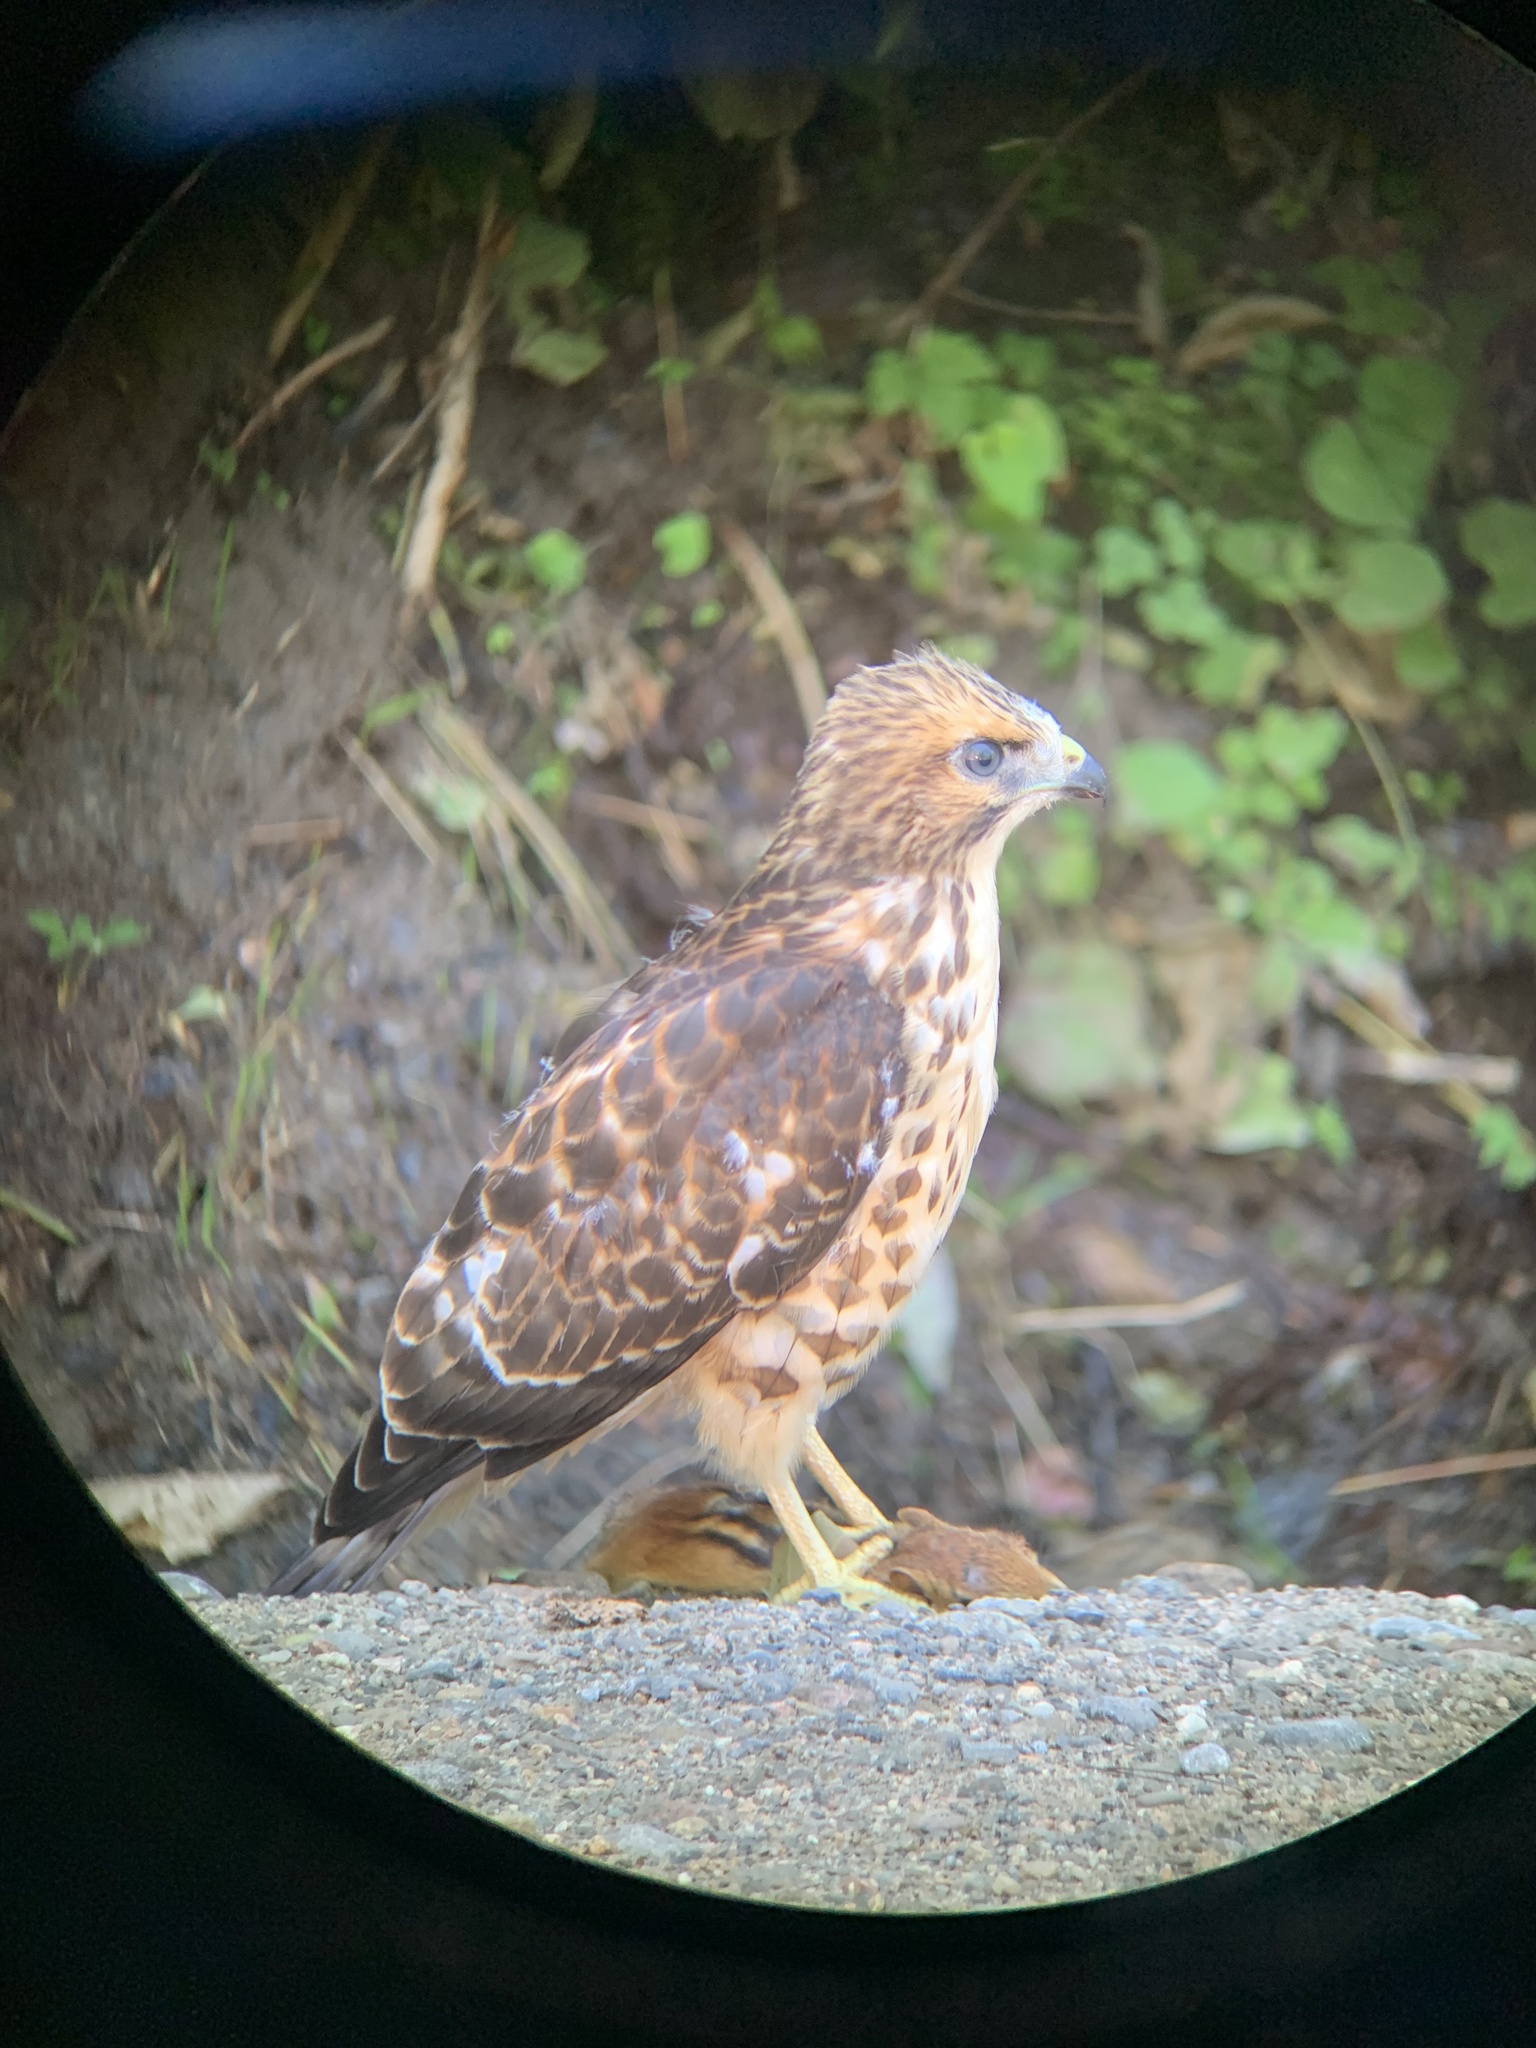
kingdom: Animalia
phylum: Chordata
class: Mammalia
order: Rodentia
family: Sciuridae
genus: Tamias
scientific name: Tamias striatus
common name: Eastern chipmunk
